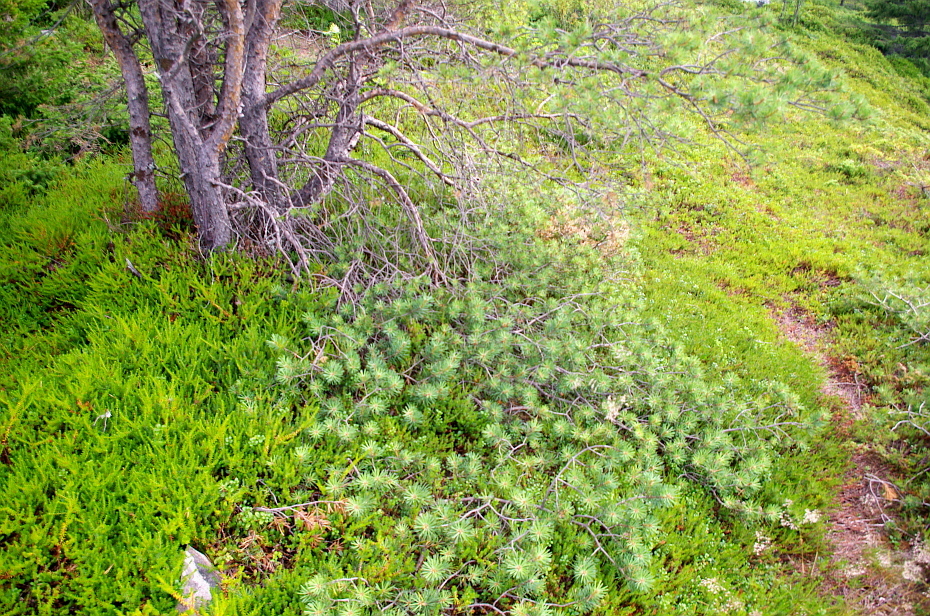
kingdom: Plantae
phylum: Tracheophyta
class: Pinopsida
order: Pinales
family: Pinaceae
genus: Pinus
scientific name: Pinus sylvestris
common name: Scots pine
